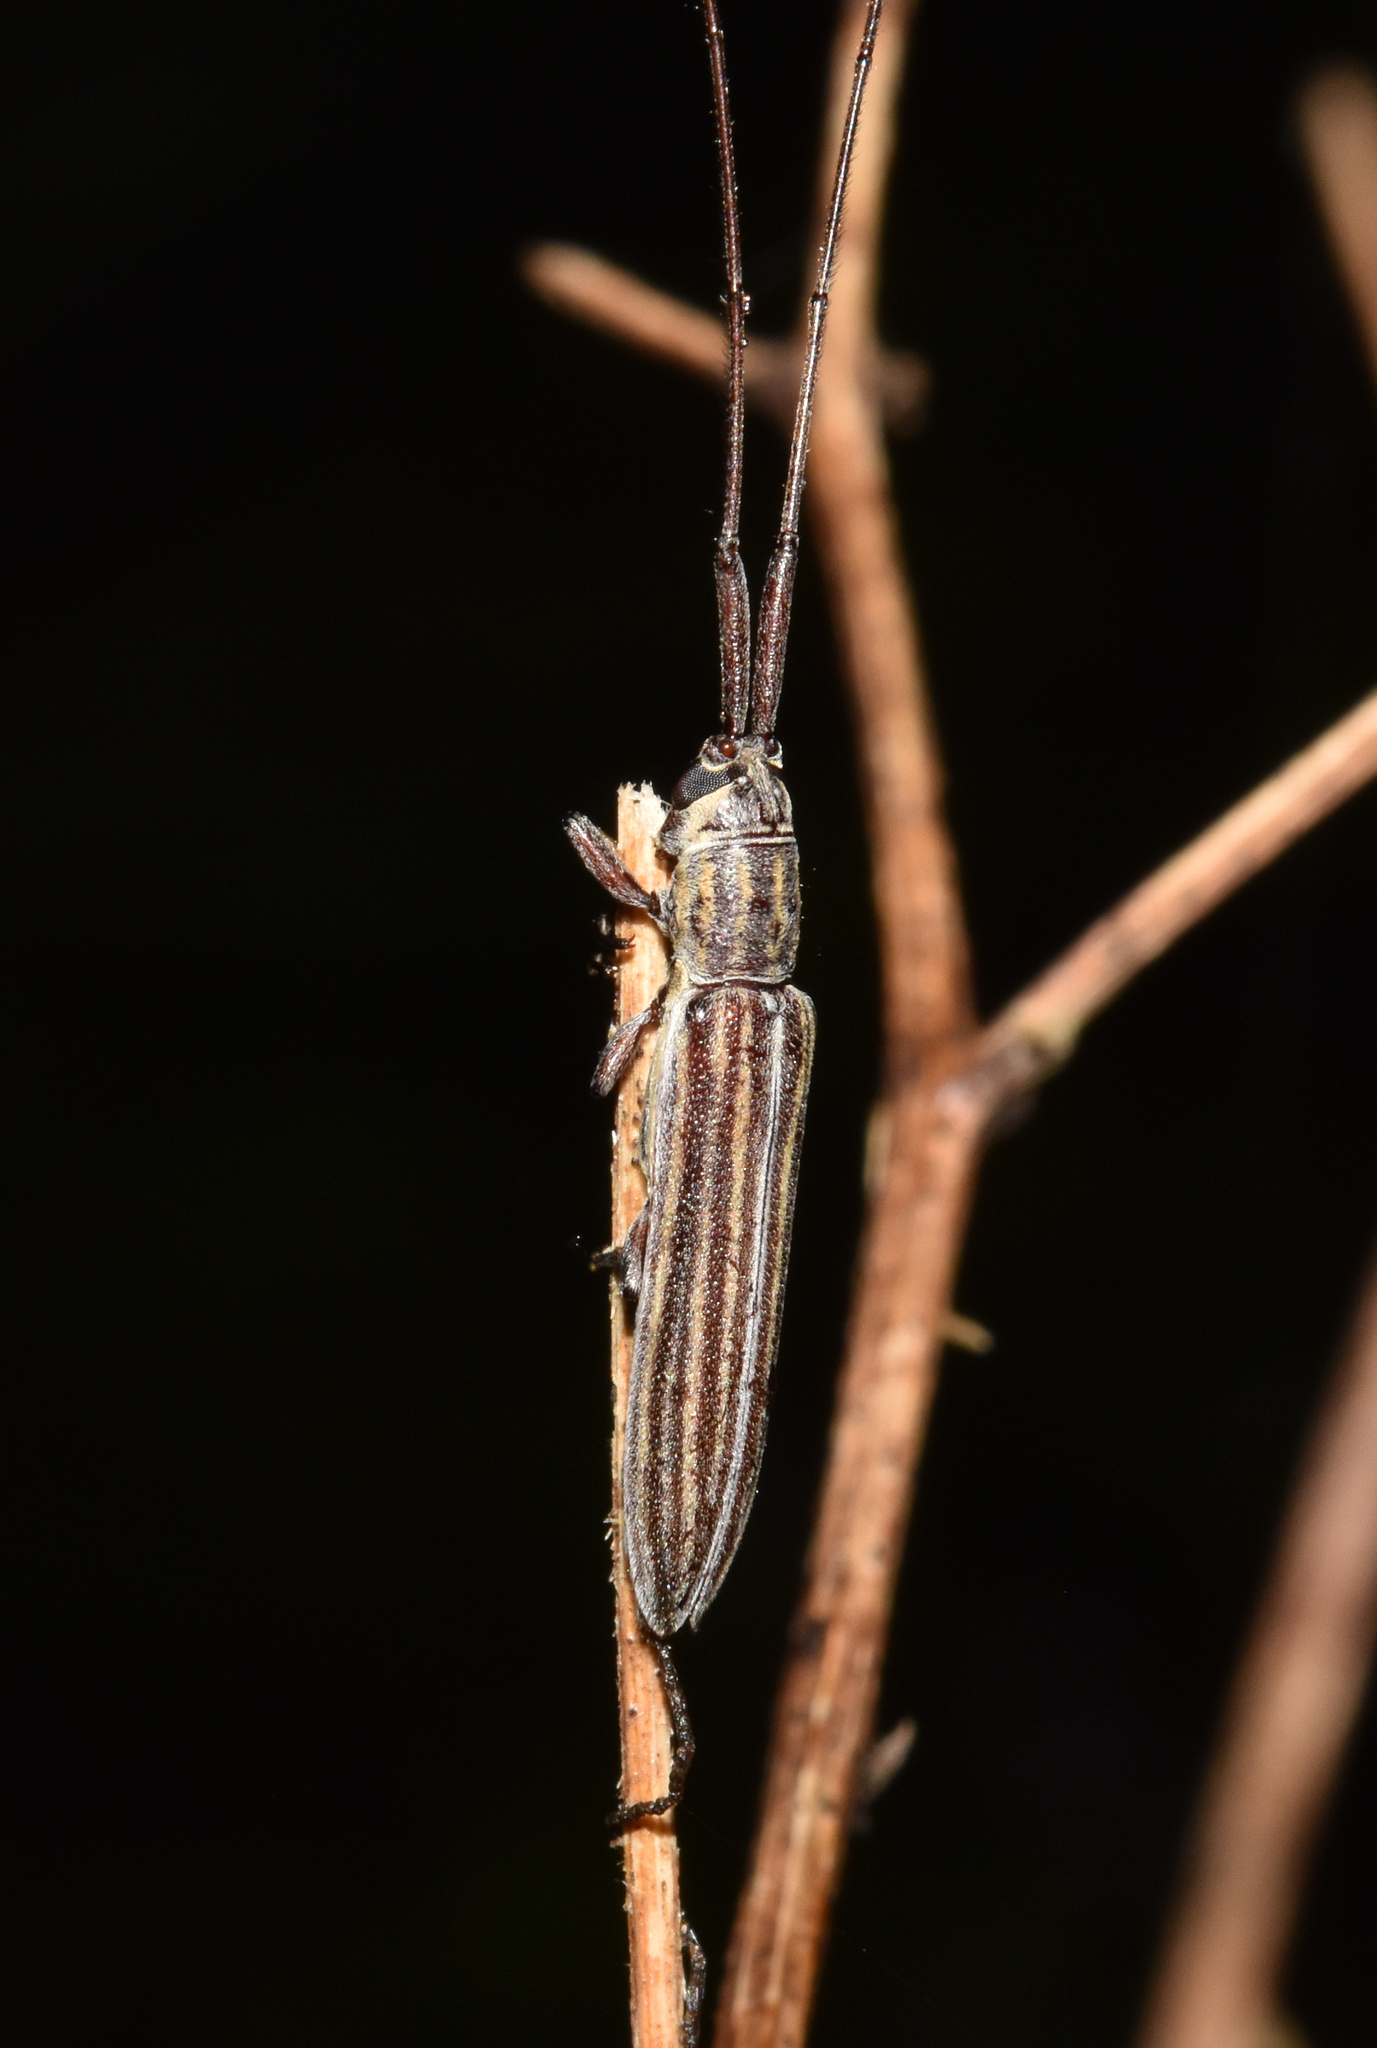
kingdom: Animalia
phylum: Arthropoda
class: Insecta
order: Coleoptera
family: Cerambycidae
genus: Hyllisia
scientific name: Hyllisia antennata
